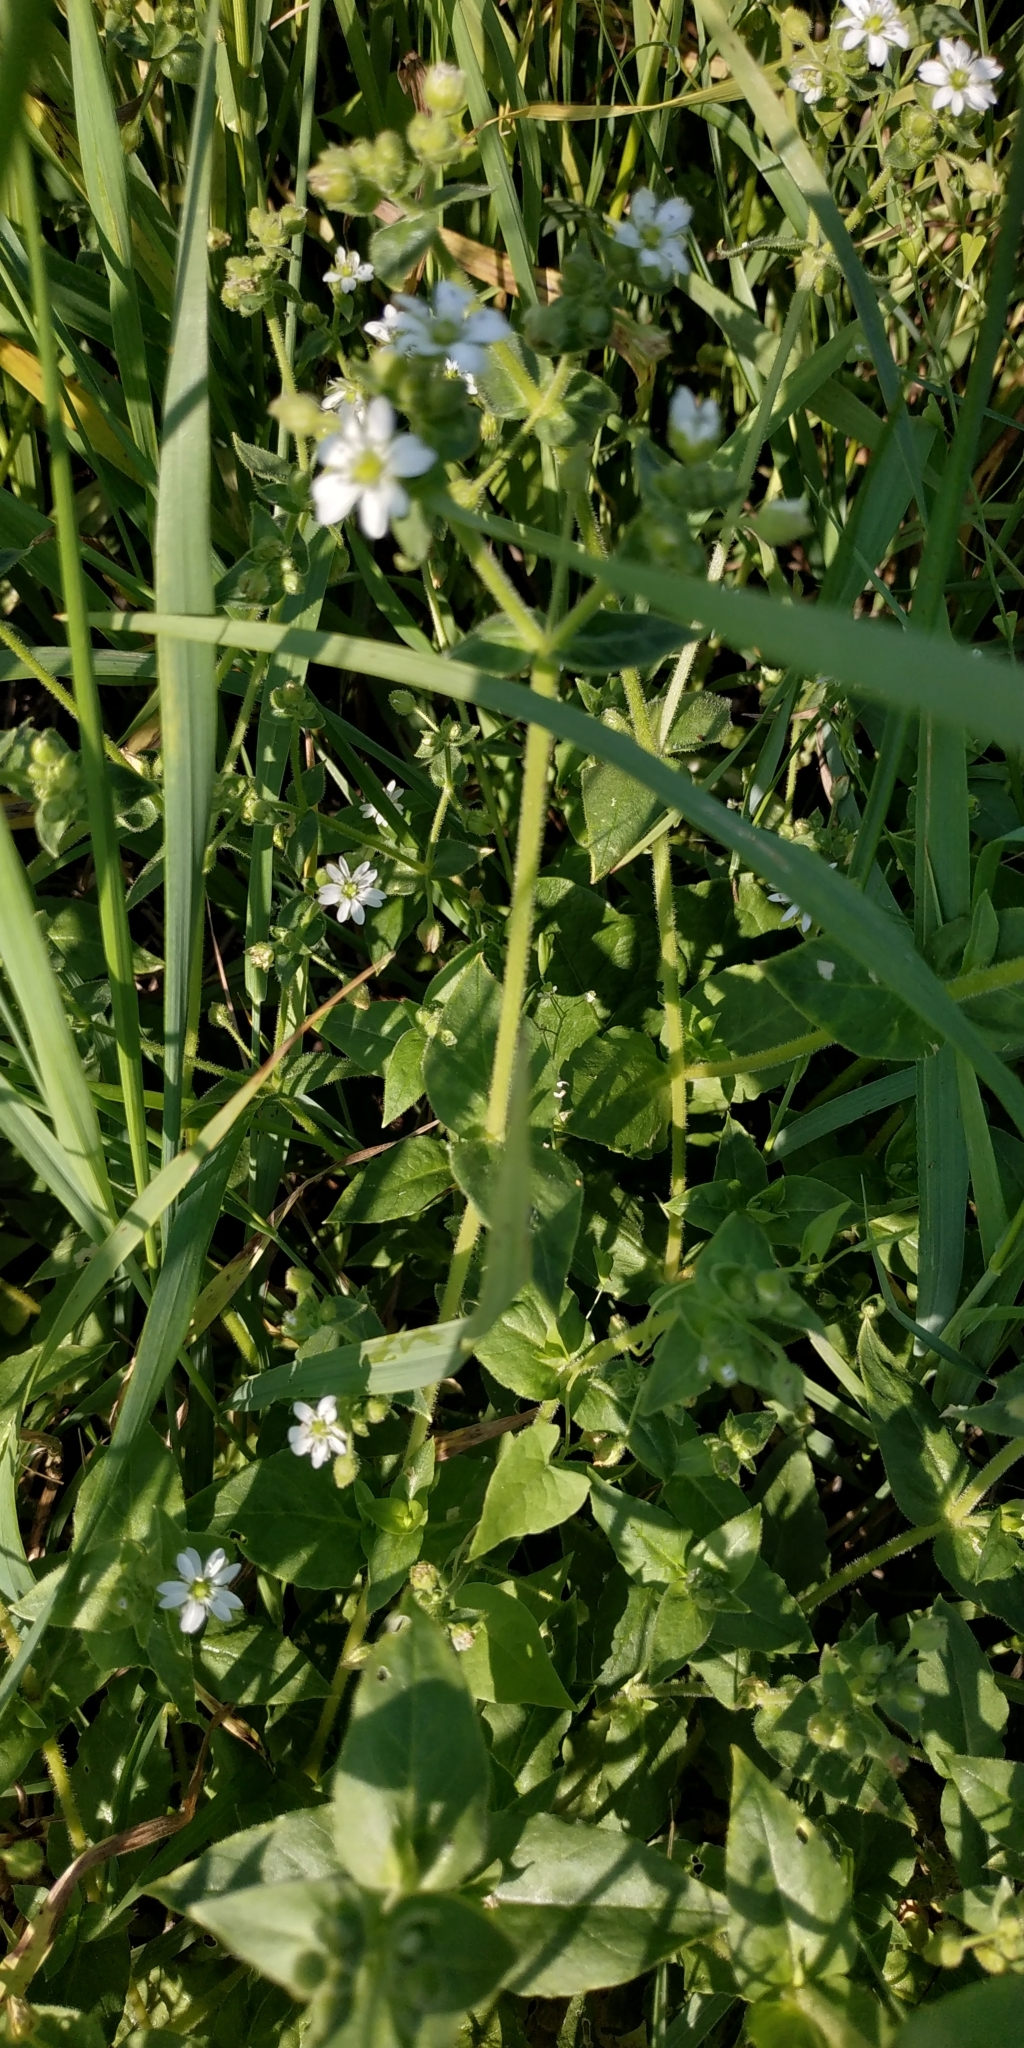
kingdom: Plantae
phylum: Tracheophyta
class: Magnoliopsida
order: Caryophyllales
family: Caryophyllaceae
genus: Stellaria
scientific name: Stellaria aquatica
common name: Water chickweed
